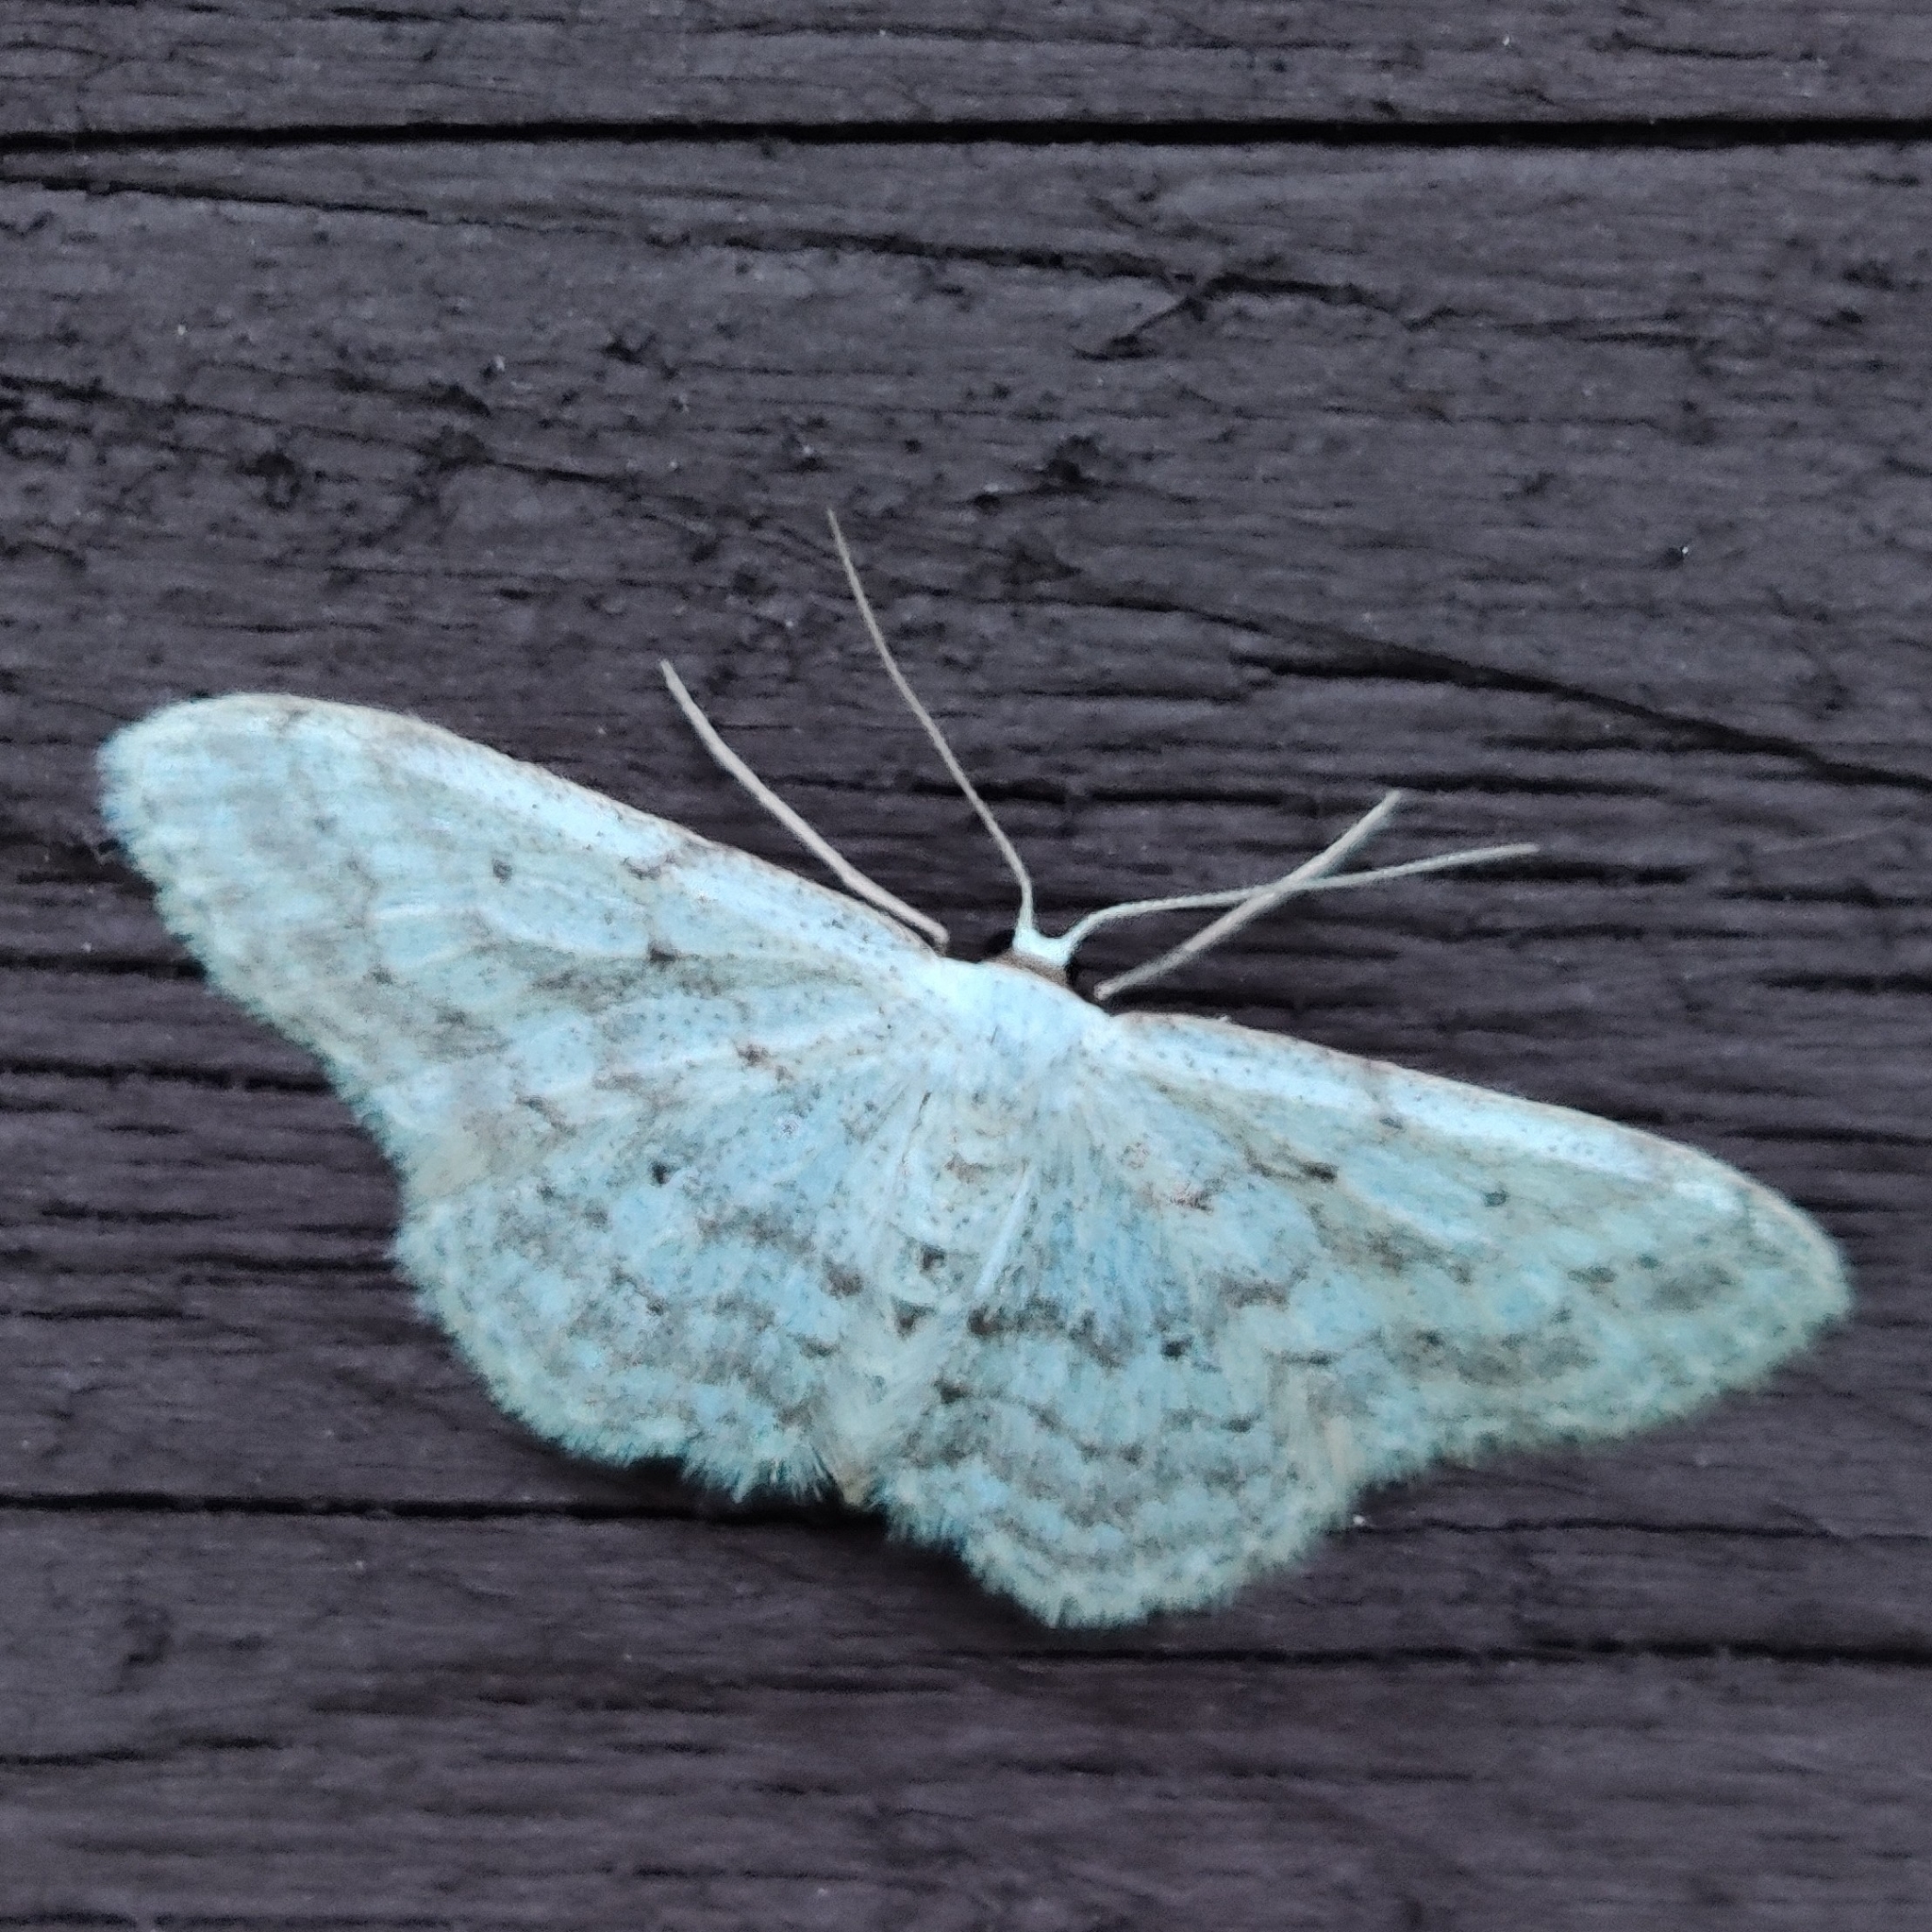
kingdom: Animalia
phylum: Arthropoda
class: Insecta
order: Lepidoptera
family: Geometridae
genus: Idaea
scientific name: Idaea seriata
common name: Small dusty wave
